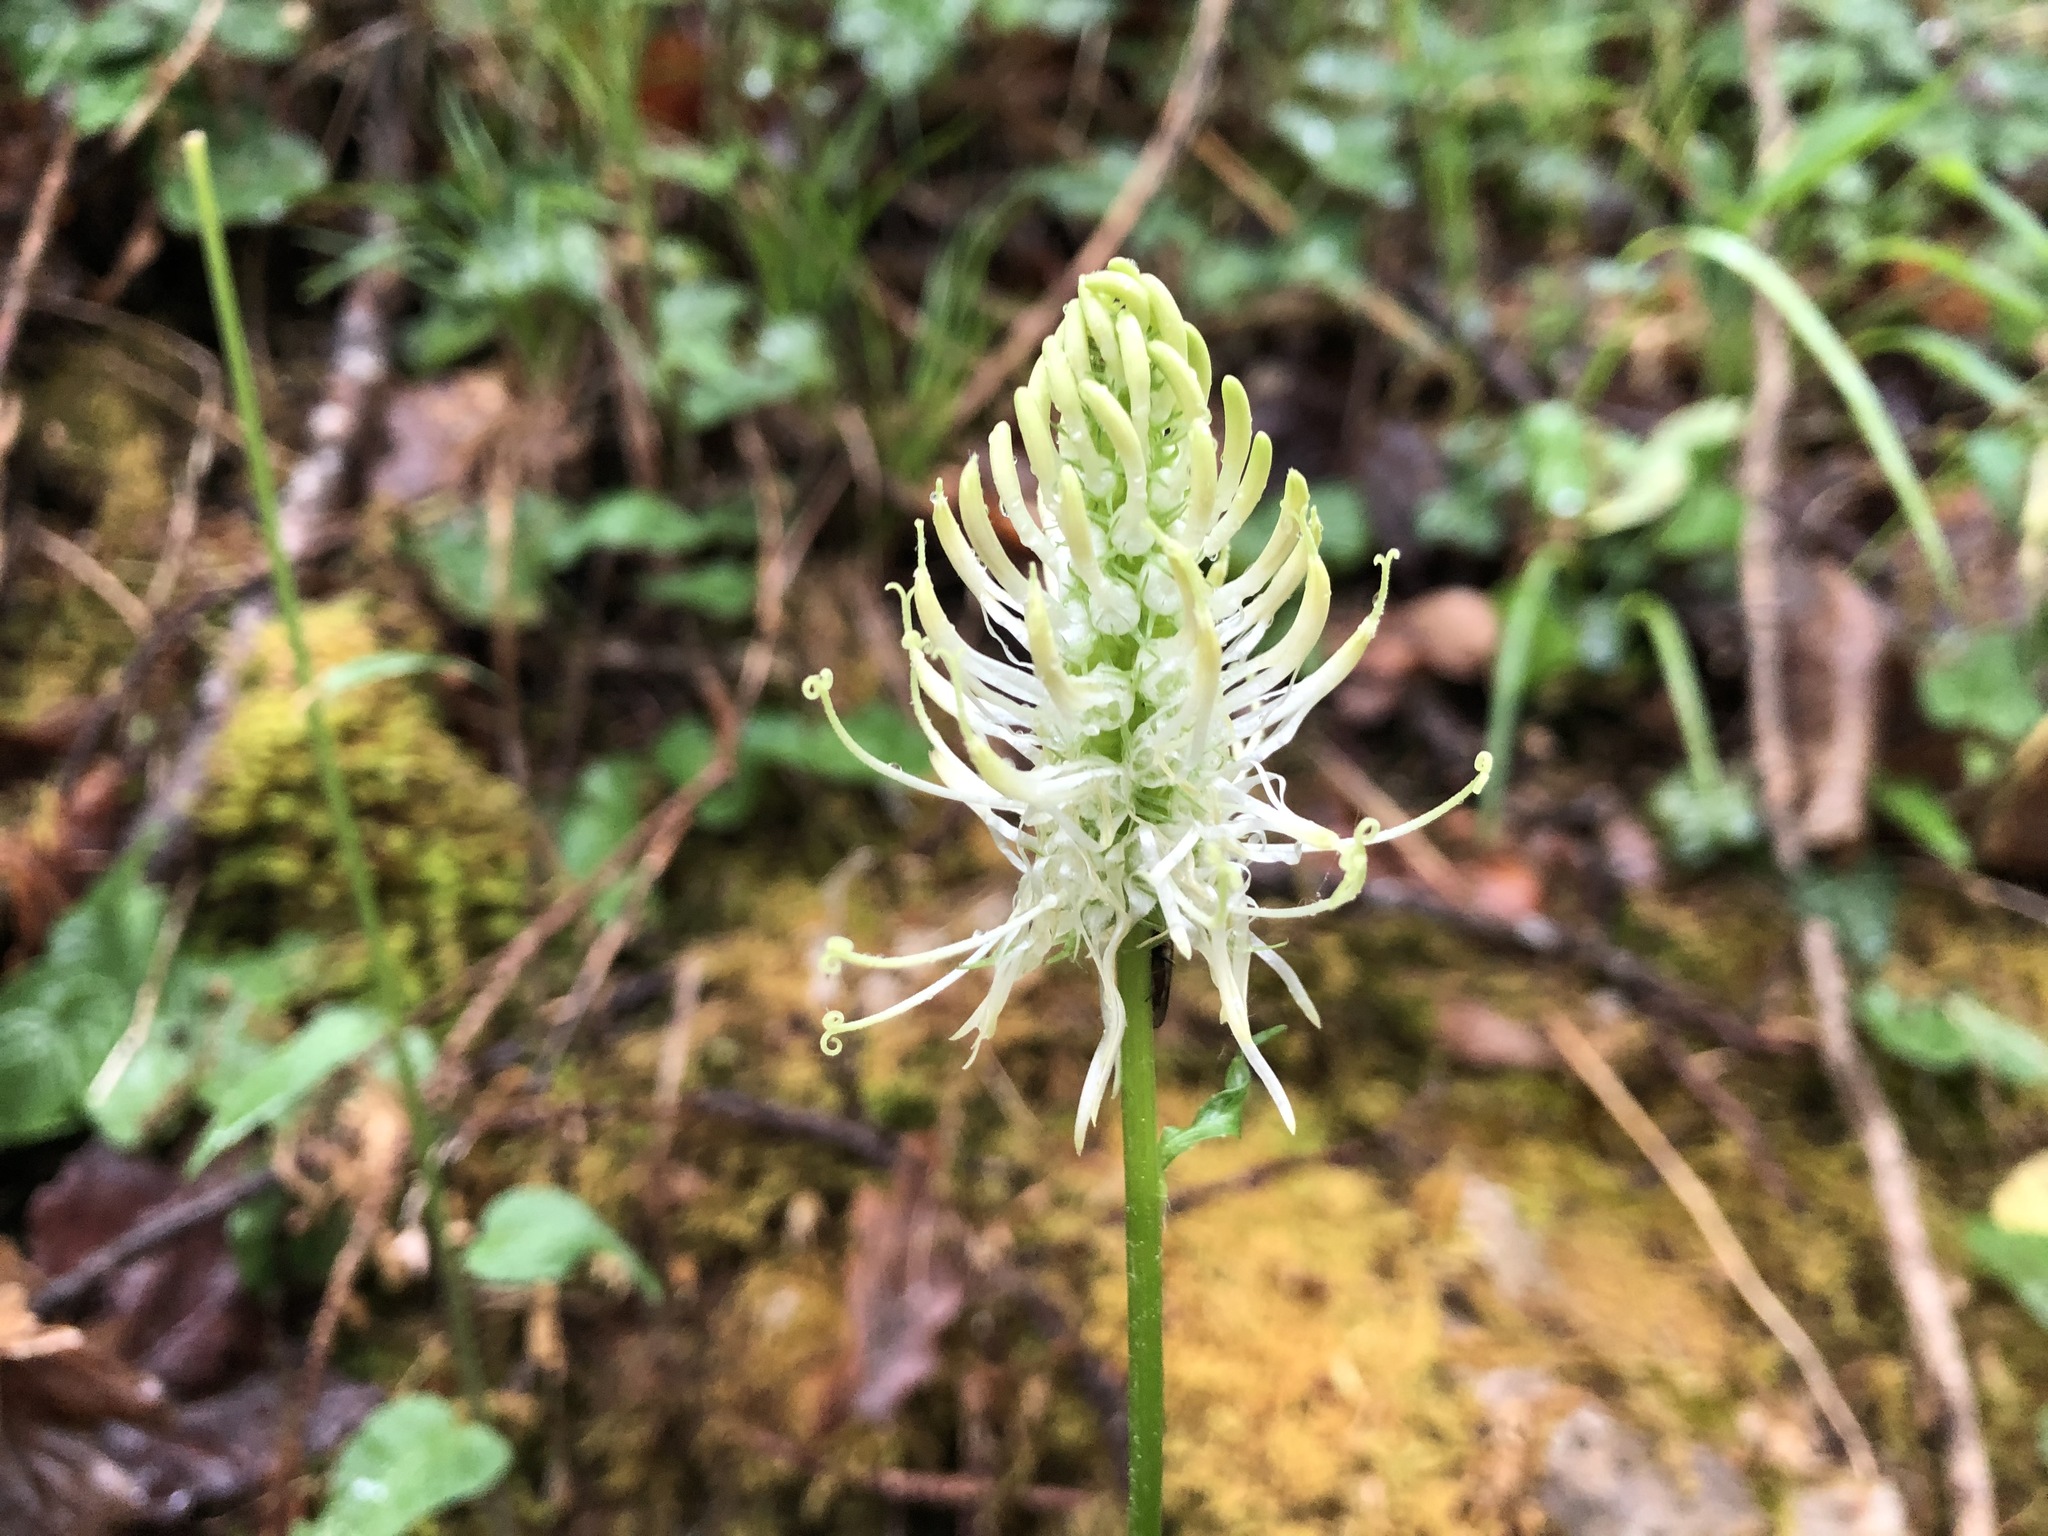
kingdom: Plantae
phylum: Tracheophyta
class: Magnoliopsida
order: Asterales
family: Campanulaceae
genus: Phyteuma
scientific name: Phyteuma spicatum
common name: Spiked rampion
